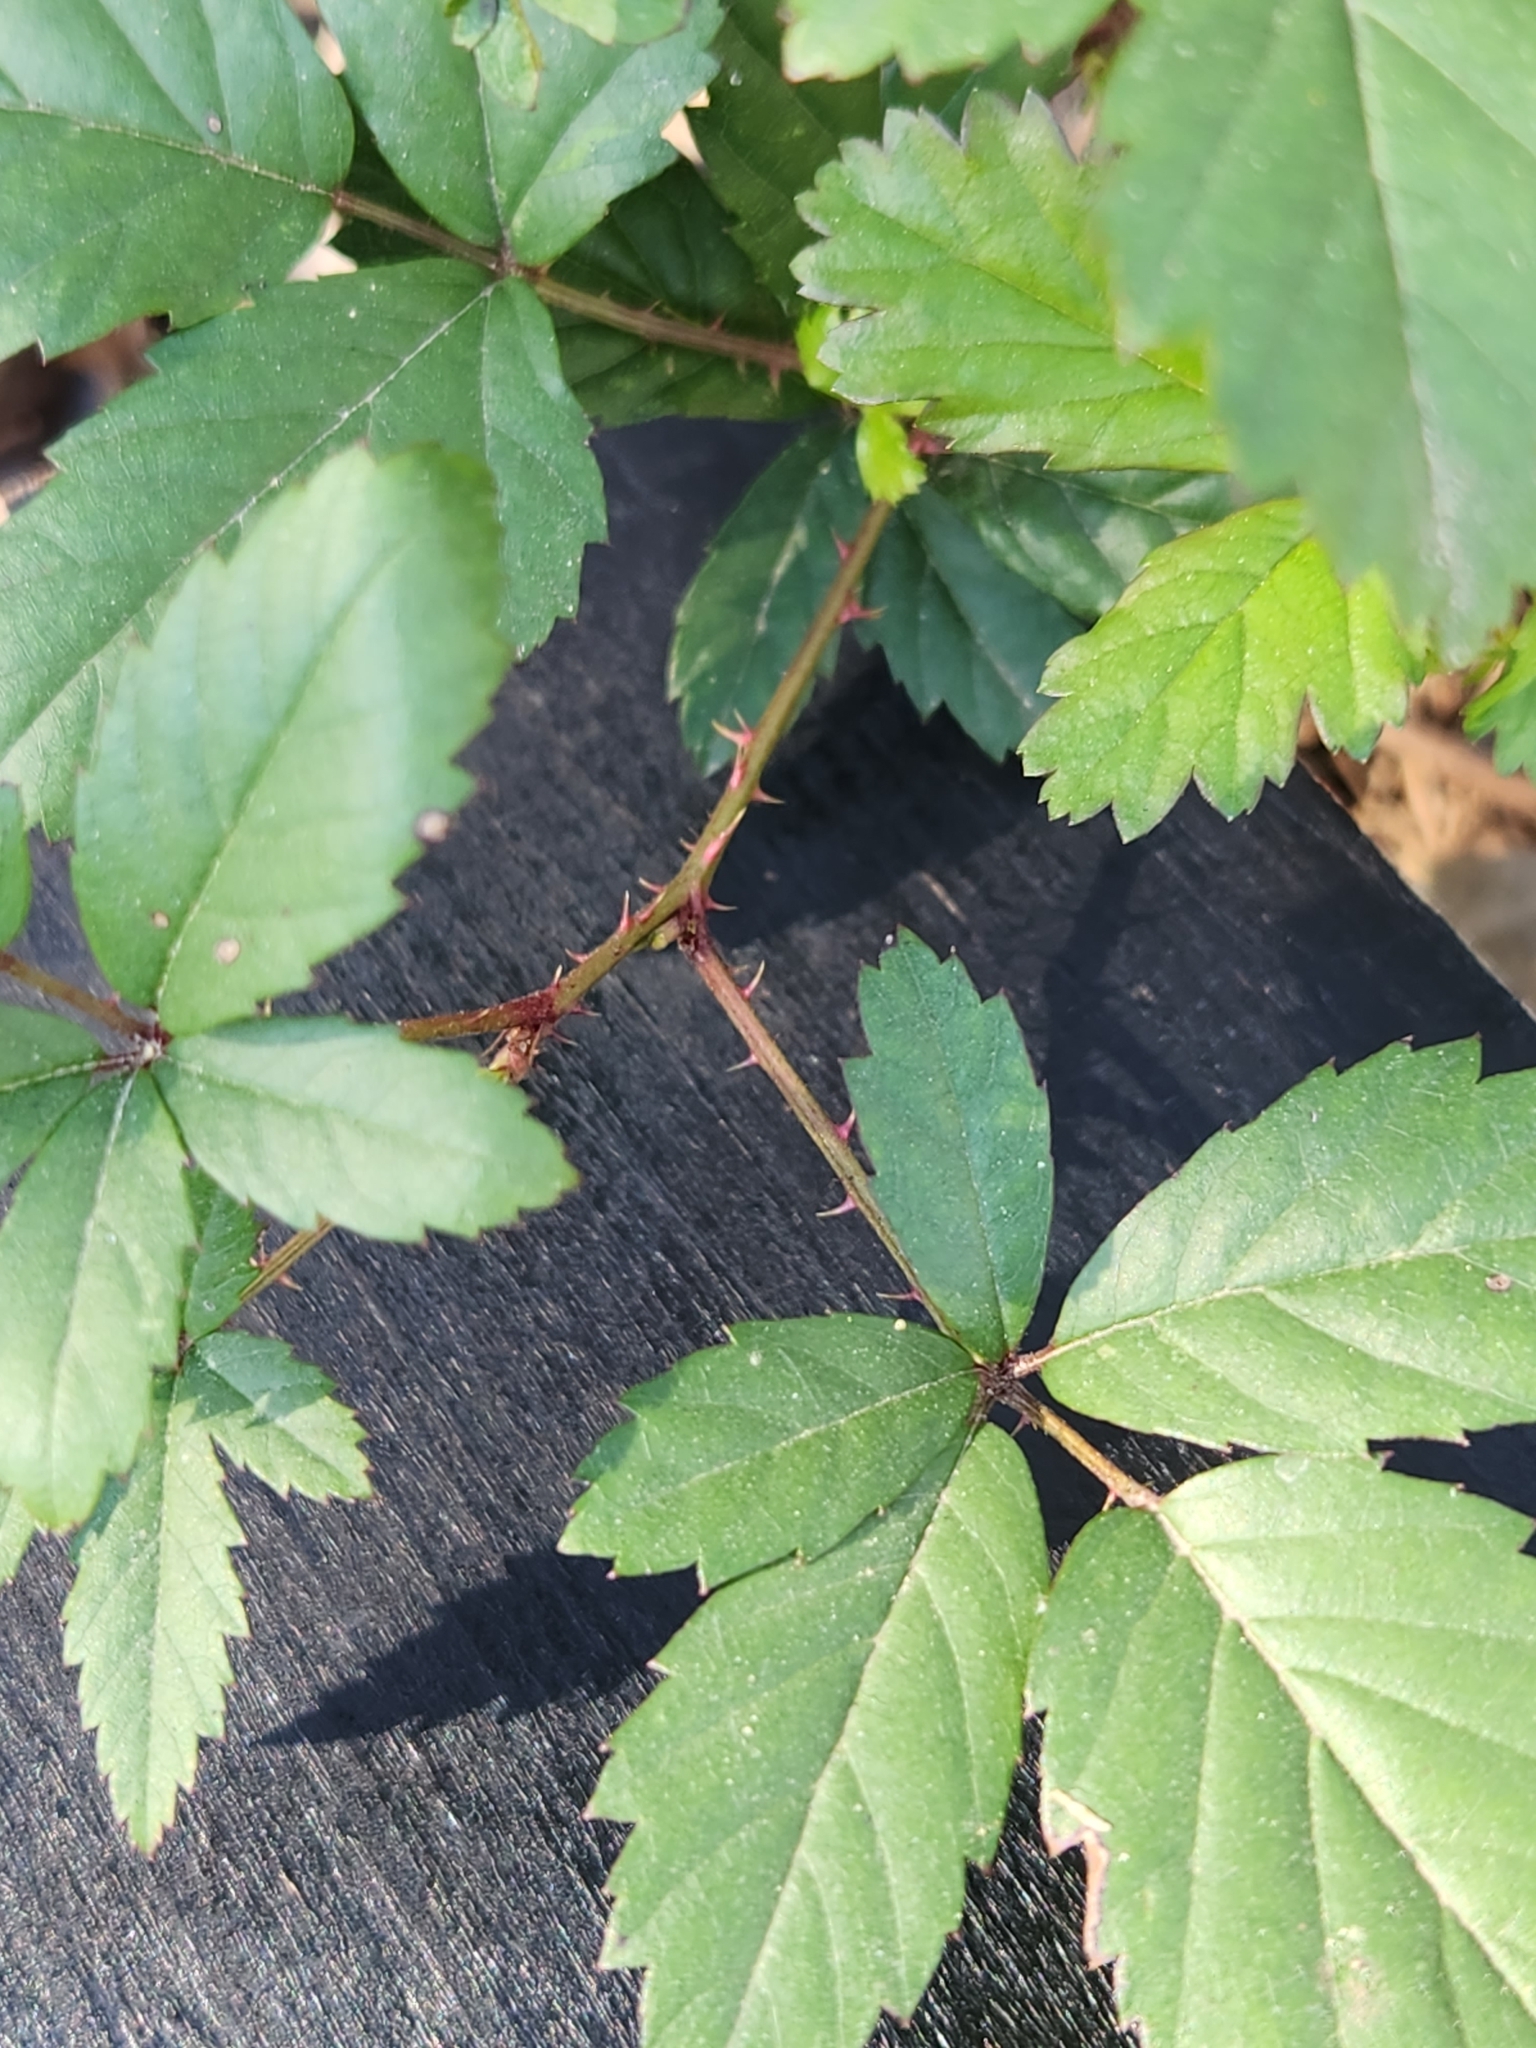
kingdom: Plantae
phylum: Tracheophyta
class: Magnoliopsida
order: Rosales
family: Rosaceae
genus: Rubus
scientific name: Rubus trivialis
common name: Southern dewberry
